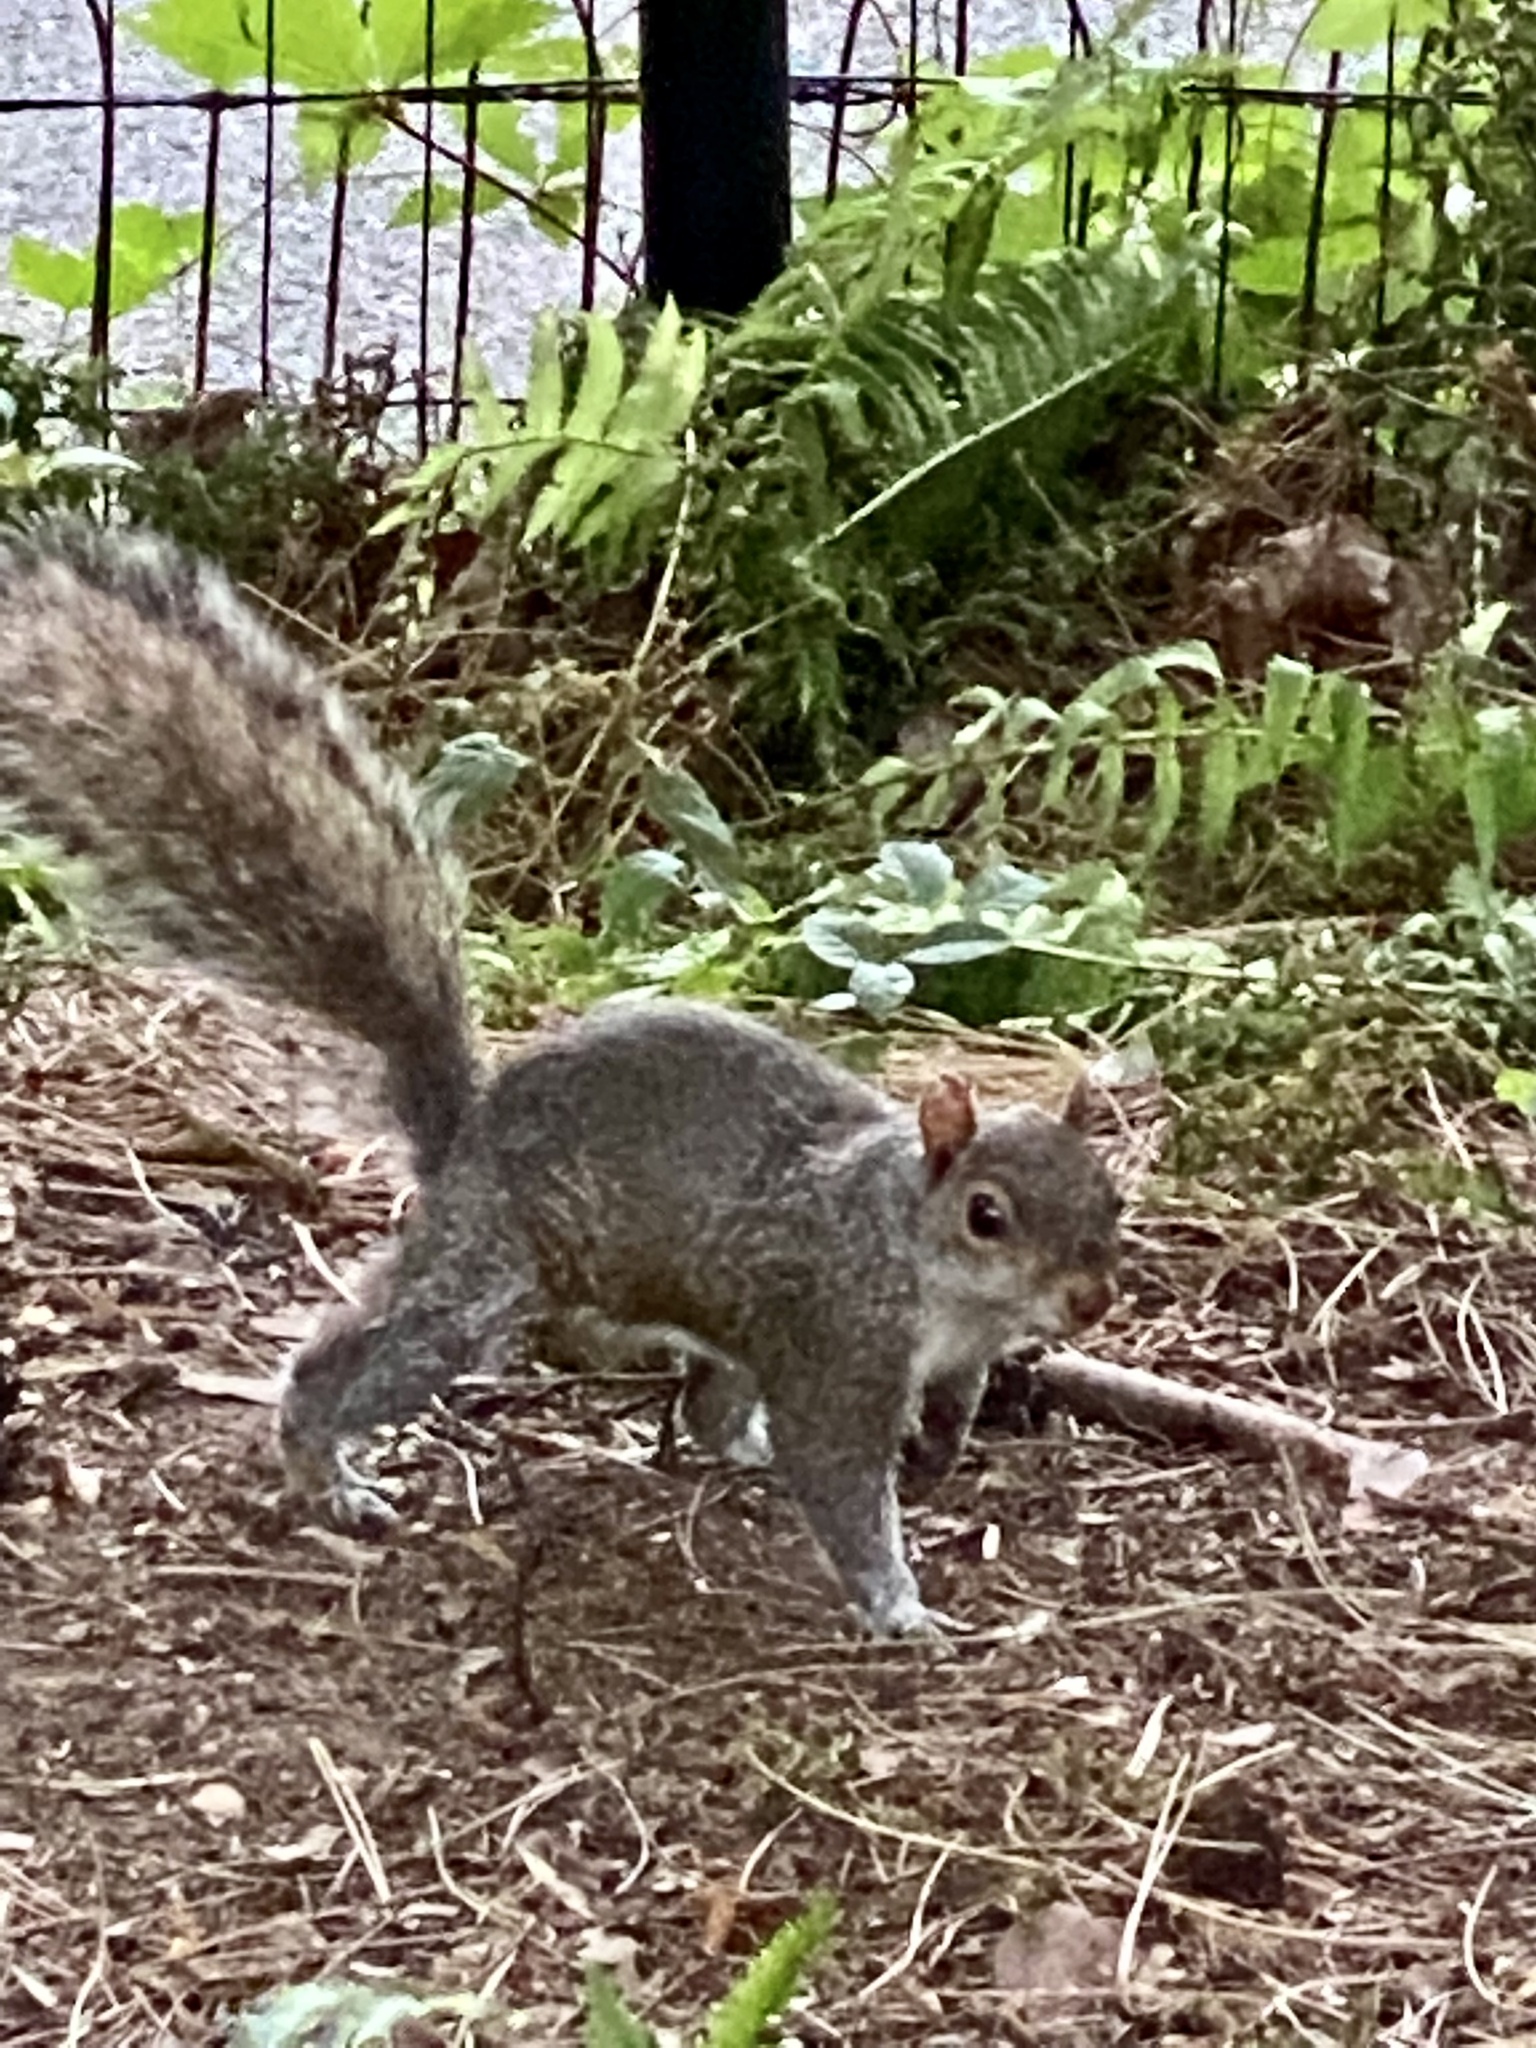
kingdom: Animalia
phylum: Chordata
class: Mammalia
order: Rodentia
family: Sciuridae
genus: Sciurus
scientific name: Sciurus carolinensis
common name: Eastern gray squirrel
